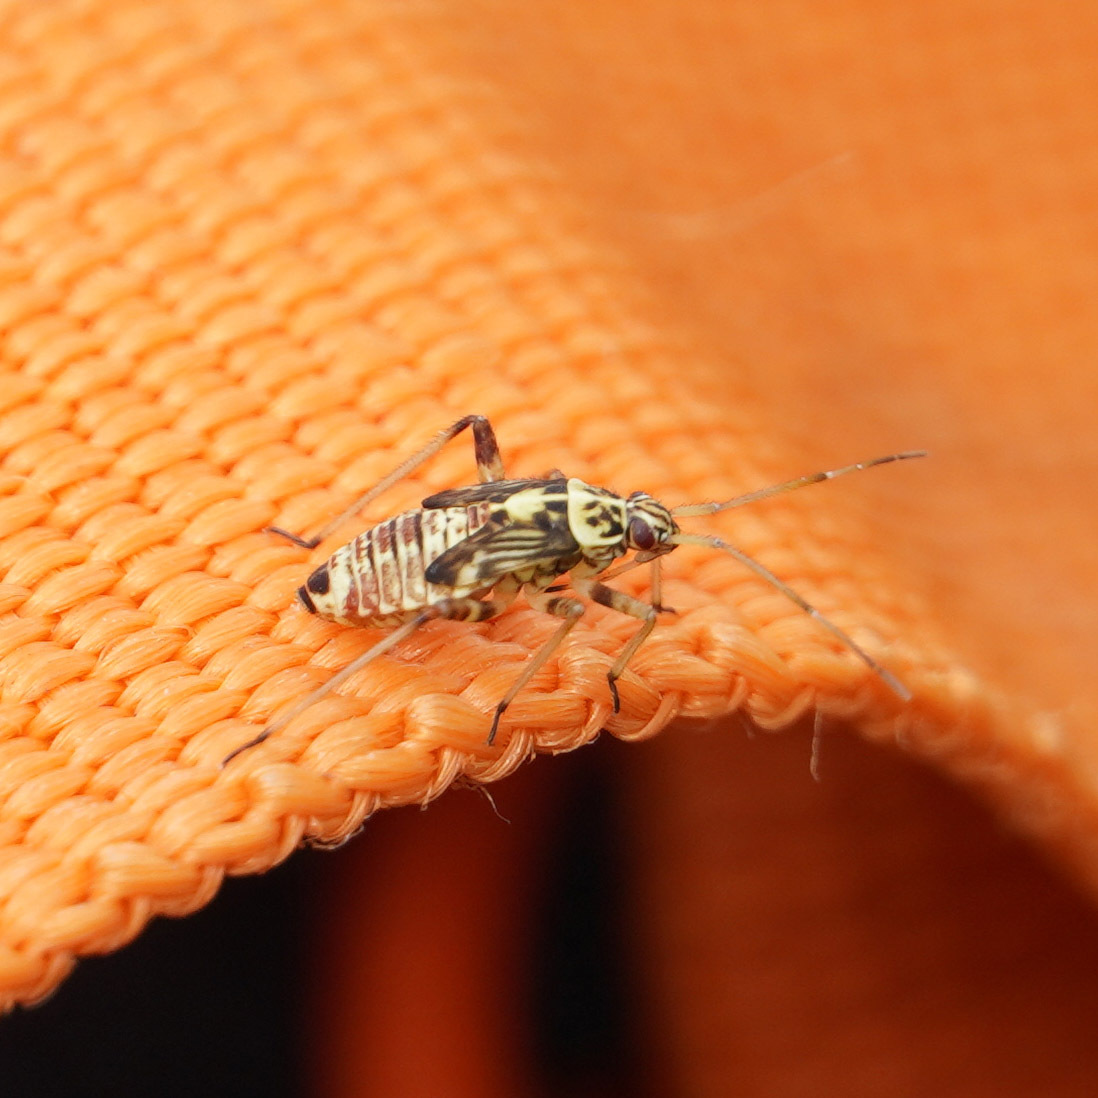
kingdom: Animalia
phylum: Arthropoda
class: Insecta
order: Hemiptera
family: Miridae
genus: Rhabdomiris
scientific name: Rhabdomiris striatellus
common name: Plant bug
